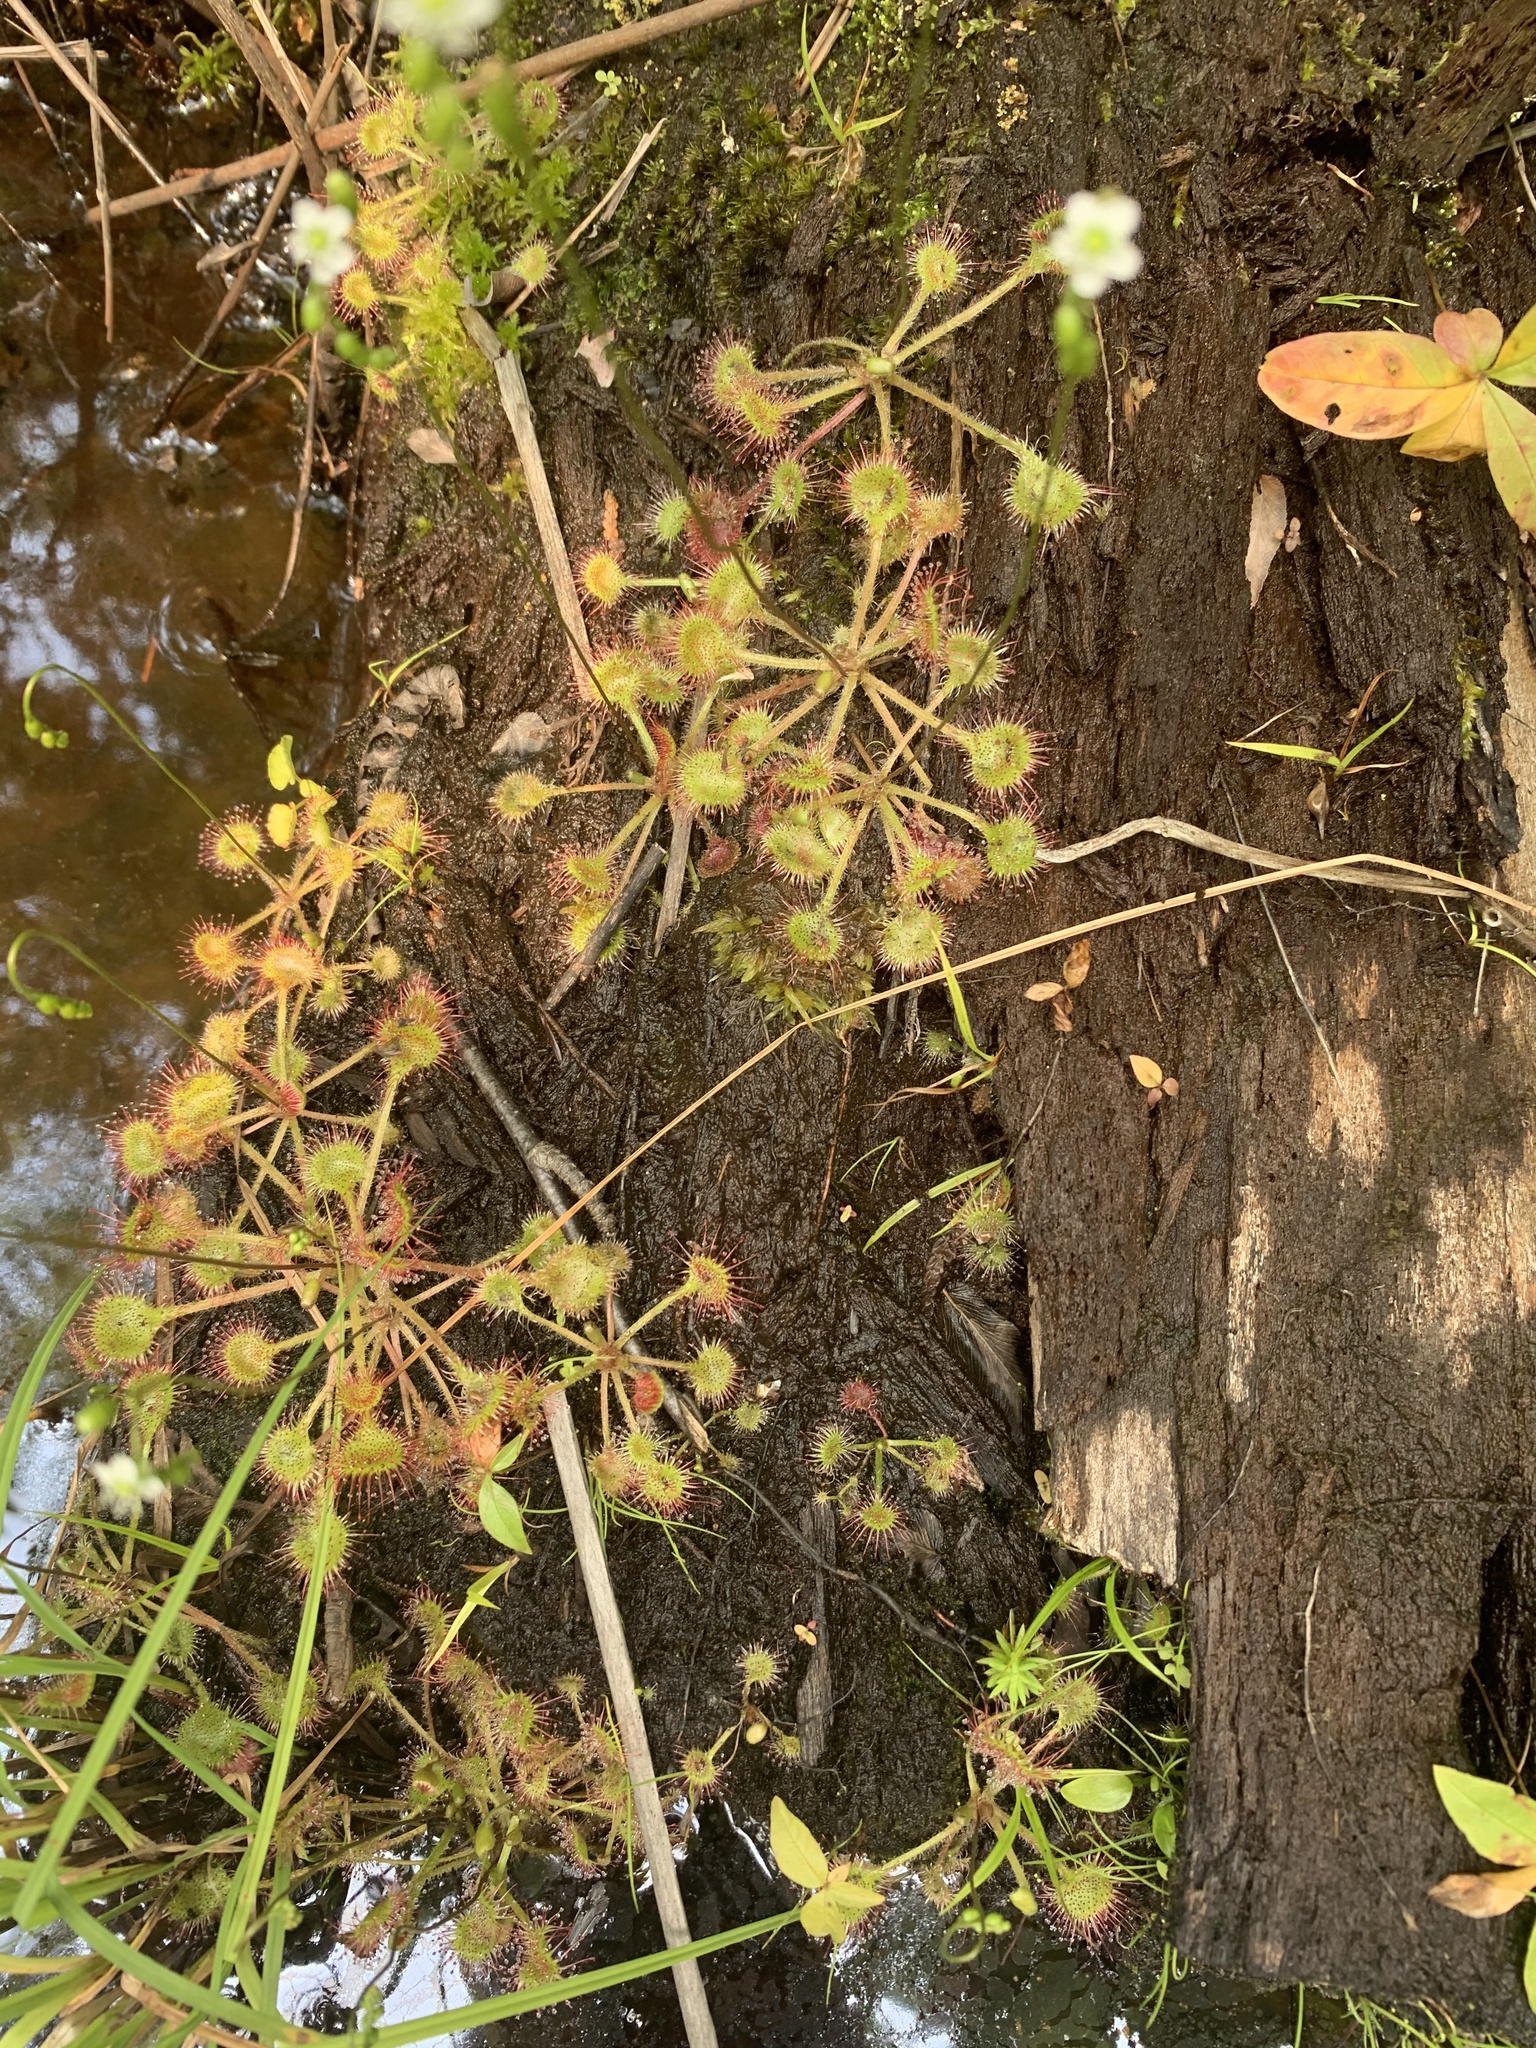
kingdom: Plantae
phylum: Tracheophyta
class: Magnoliopsida
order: Caryophyllales
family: Droseraceae
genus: Drosera
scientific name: Drosera rotundifolia
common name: Round-leaved sundew
